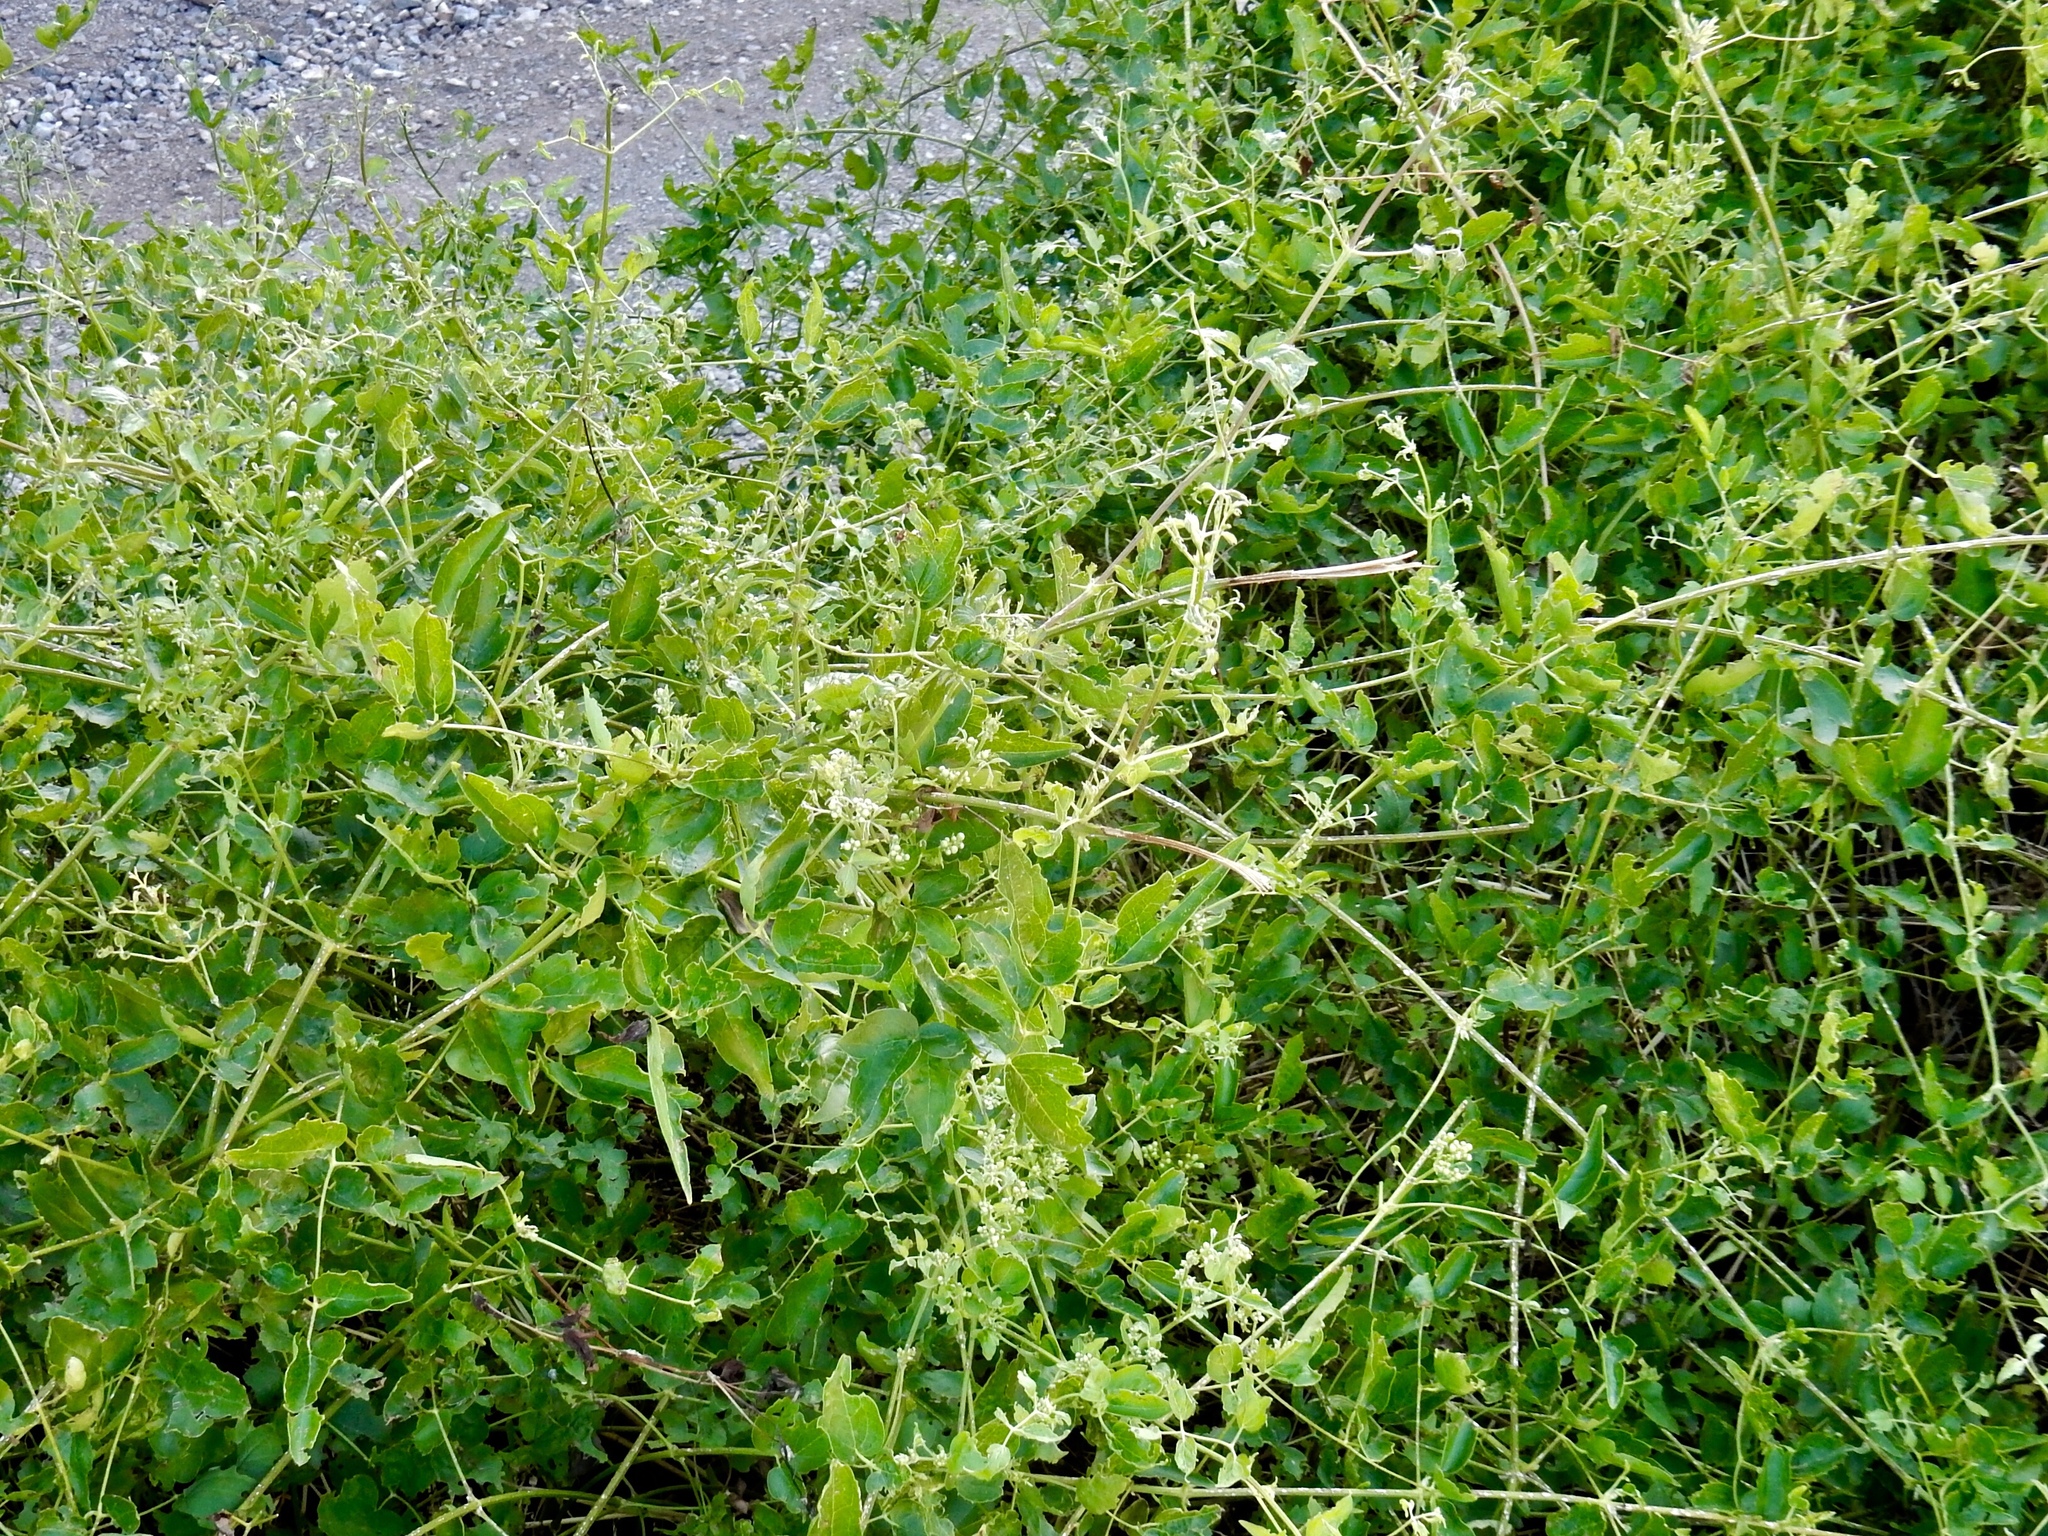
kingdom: Plantae
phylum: Tracheophyta
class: Magnoliopsida
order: Ranunculales
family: Ranunculaceae
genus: Clematis
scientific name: Clematis ligusticifolia
